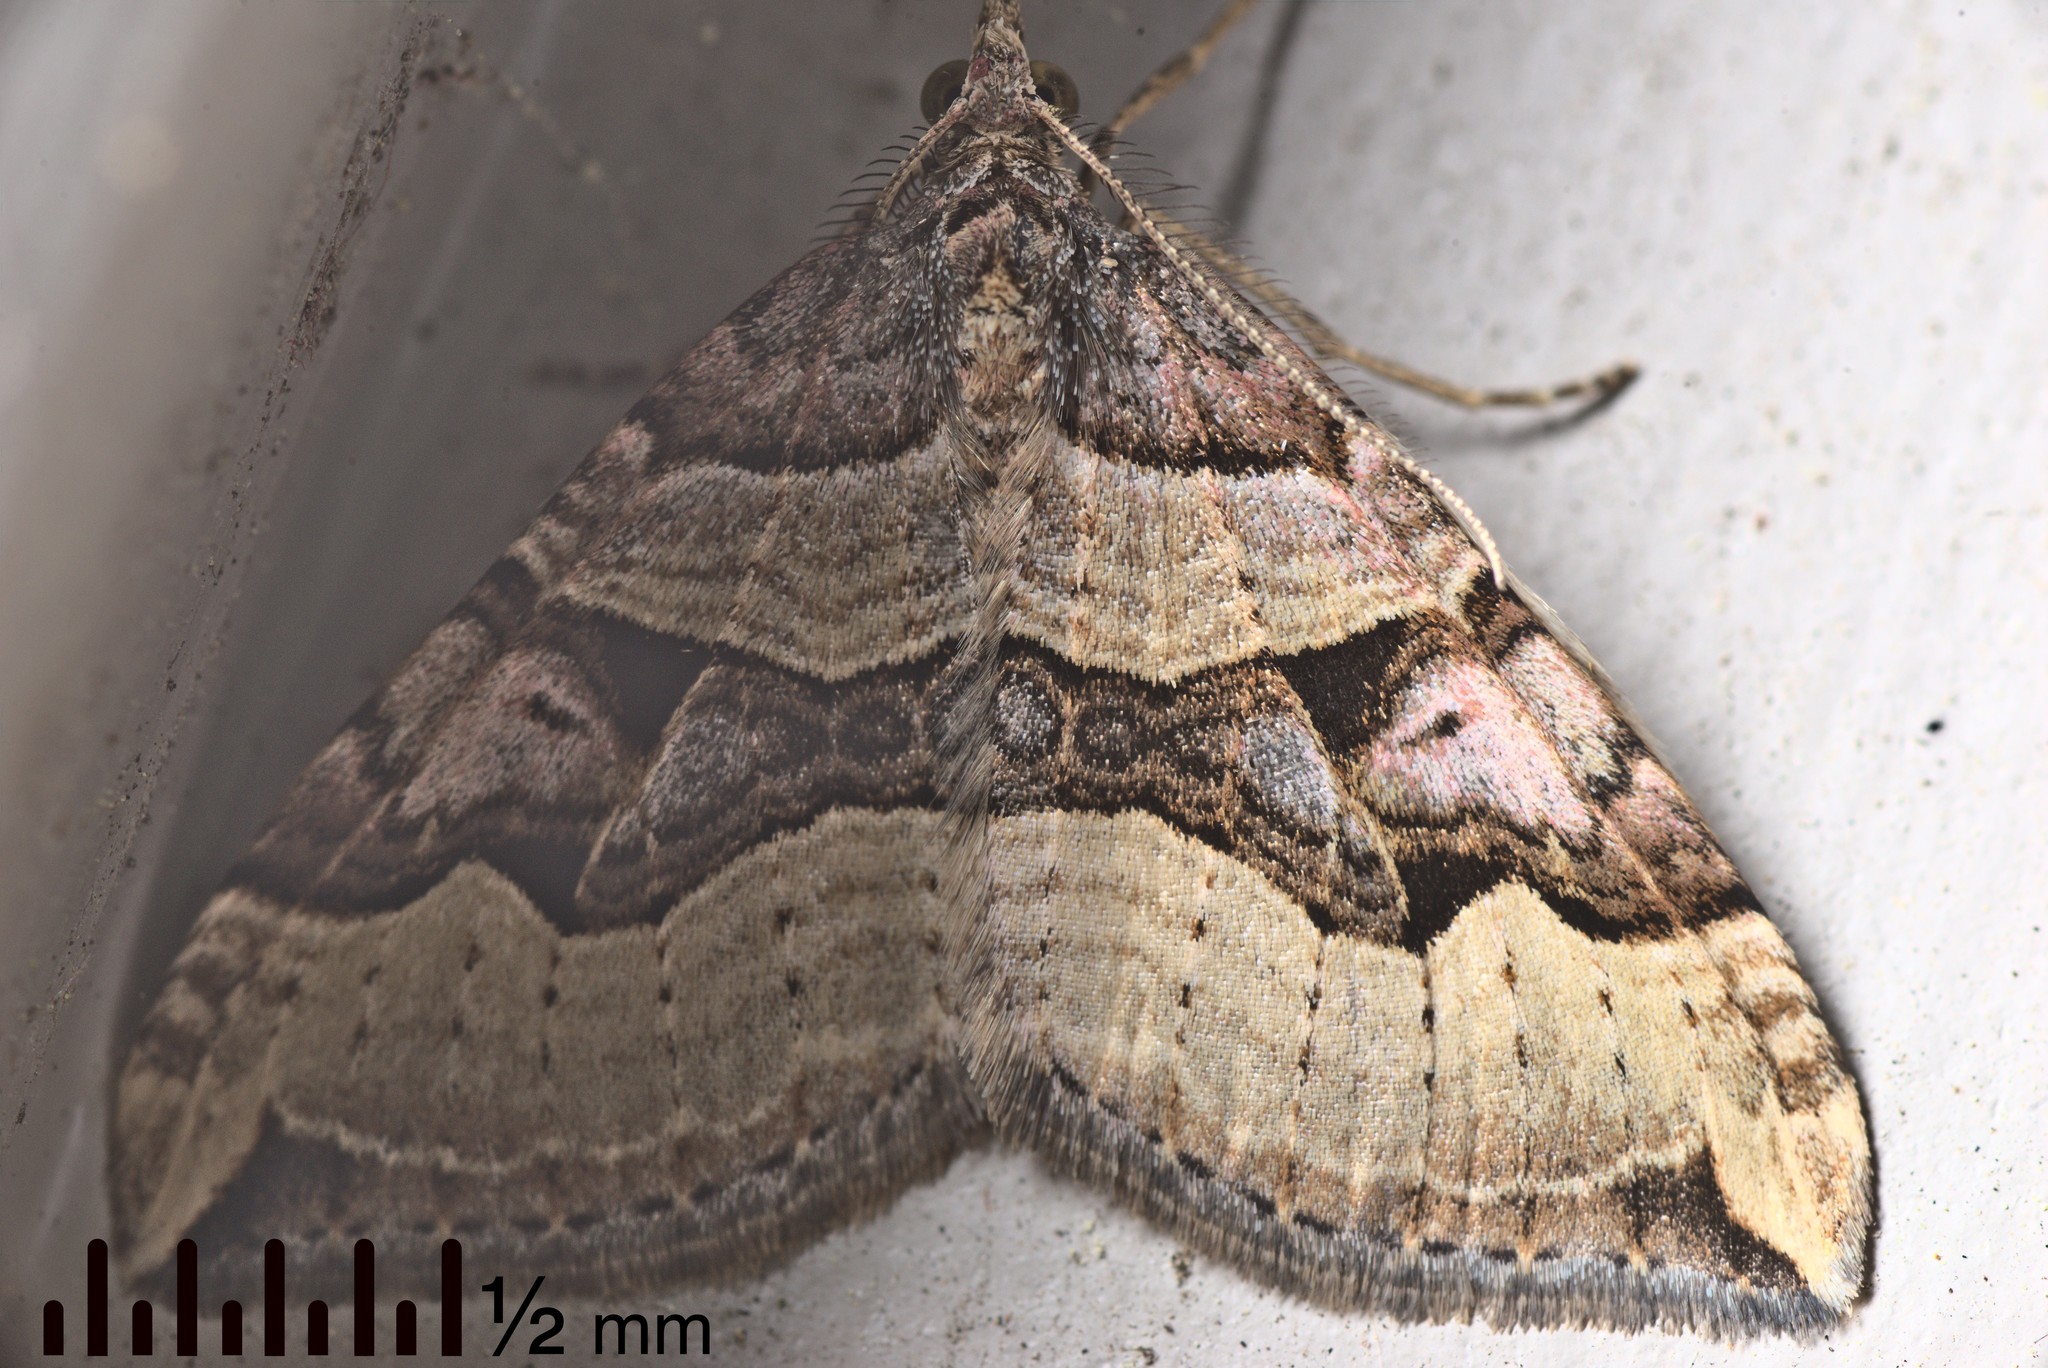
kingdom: Animalia
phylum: Arthropoda
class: Insecta
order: Lepidoptera
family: Geometridae
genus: Xanthorhoe
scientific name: Xanthorhoe semifissata
